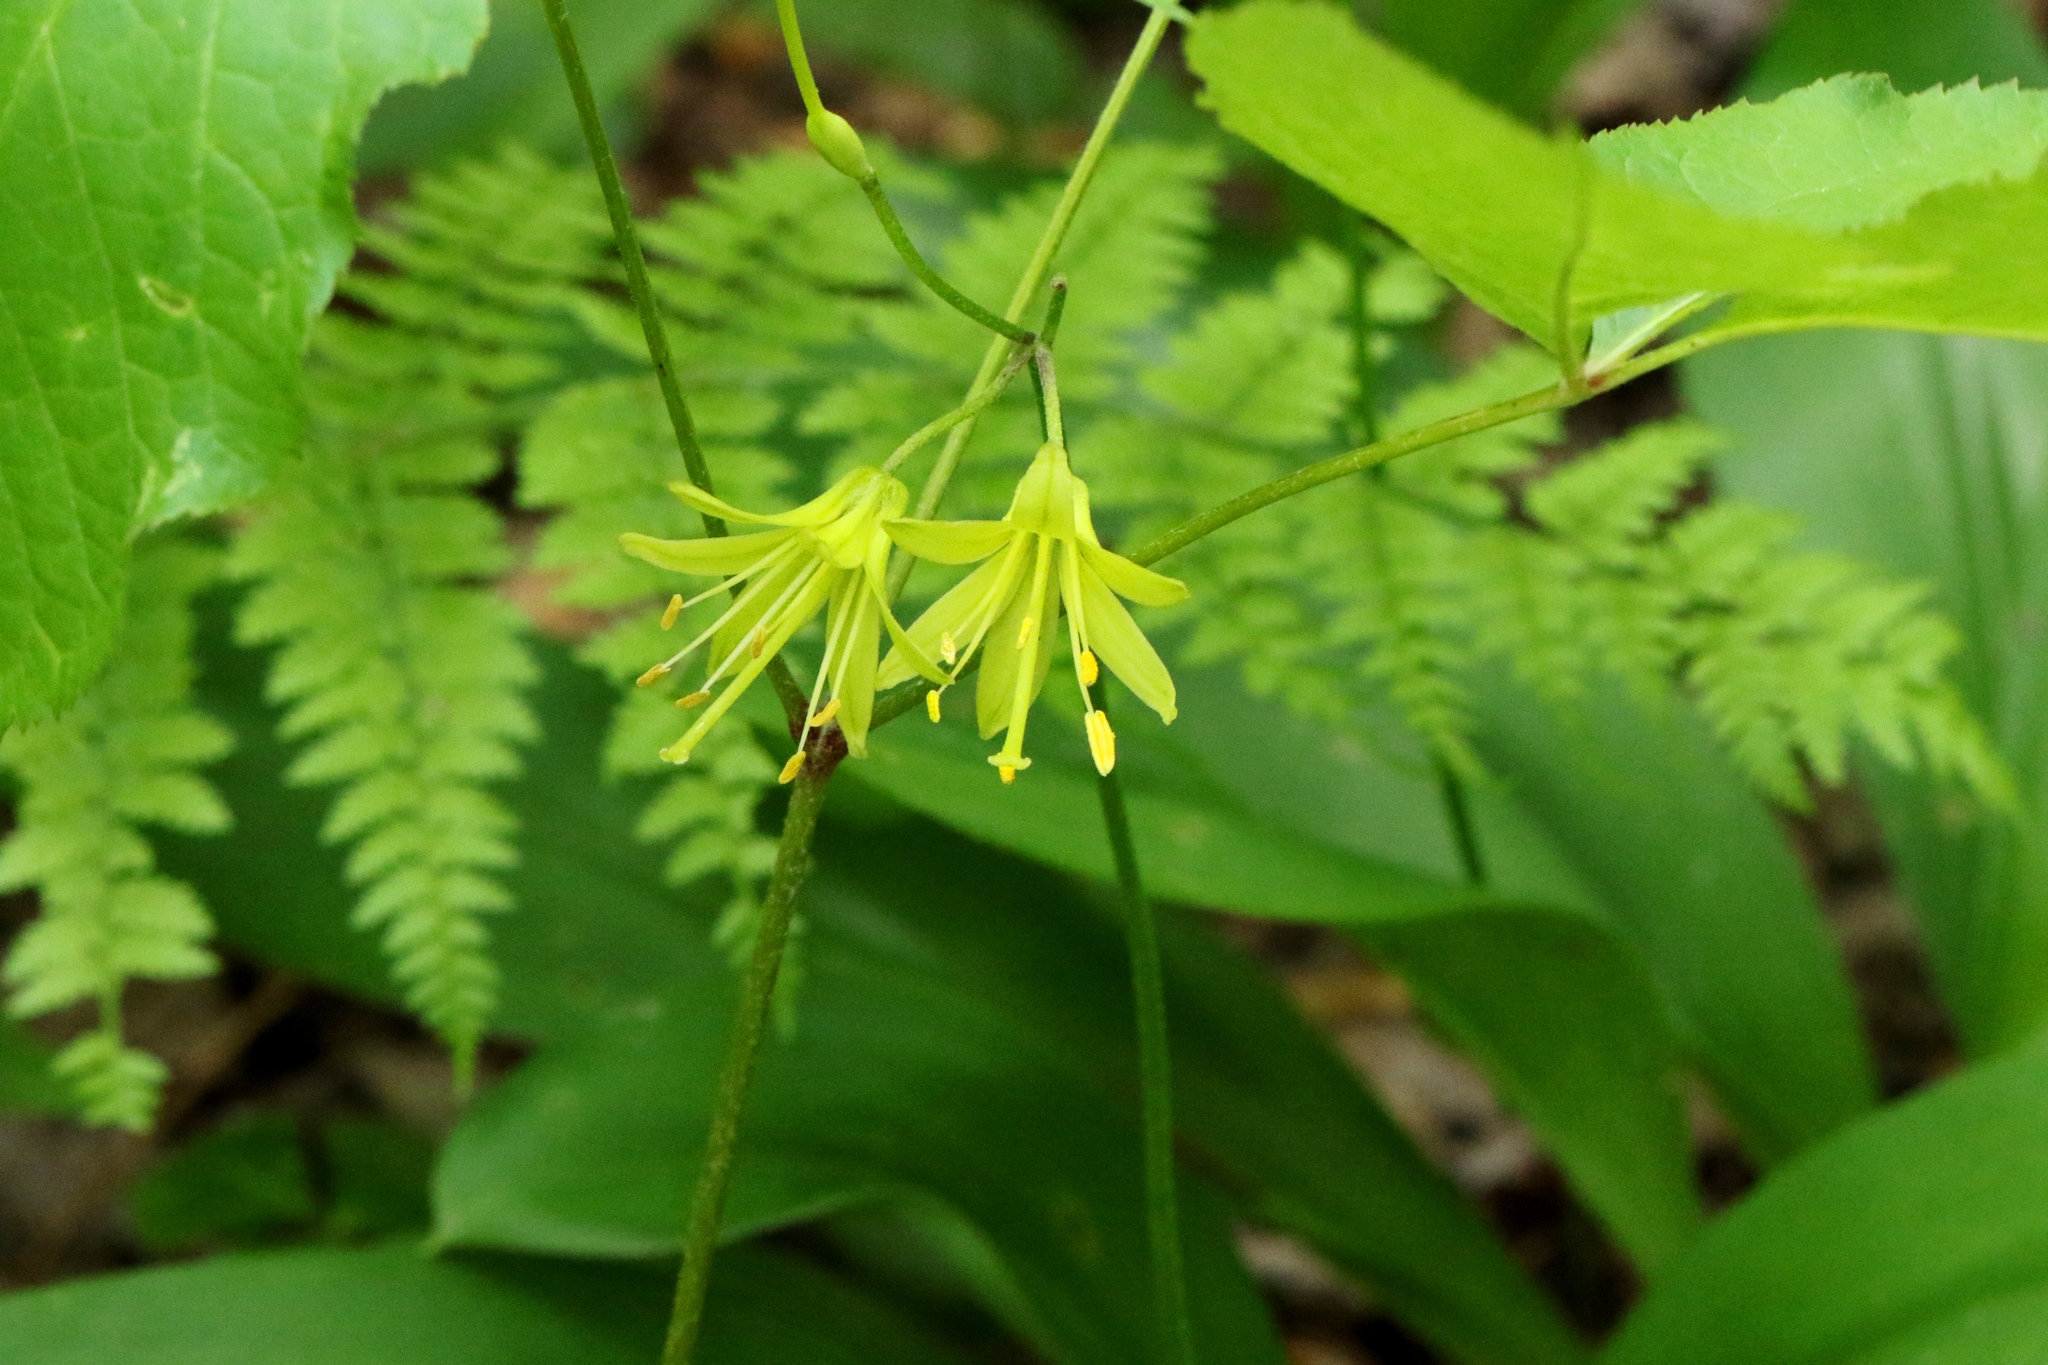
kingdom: Plantae
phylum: Tracheophyta
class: Liliopsida
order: Liliales
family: Liliaceae
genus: Clintonia
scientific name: Clintonia borealis
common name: Yellow clintonia
